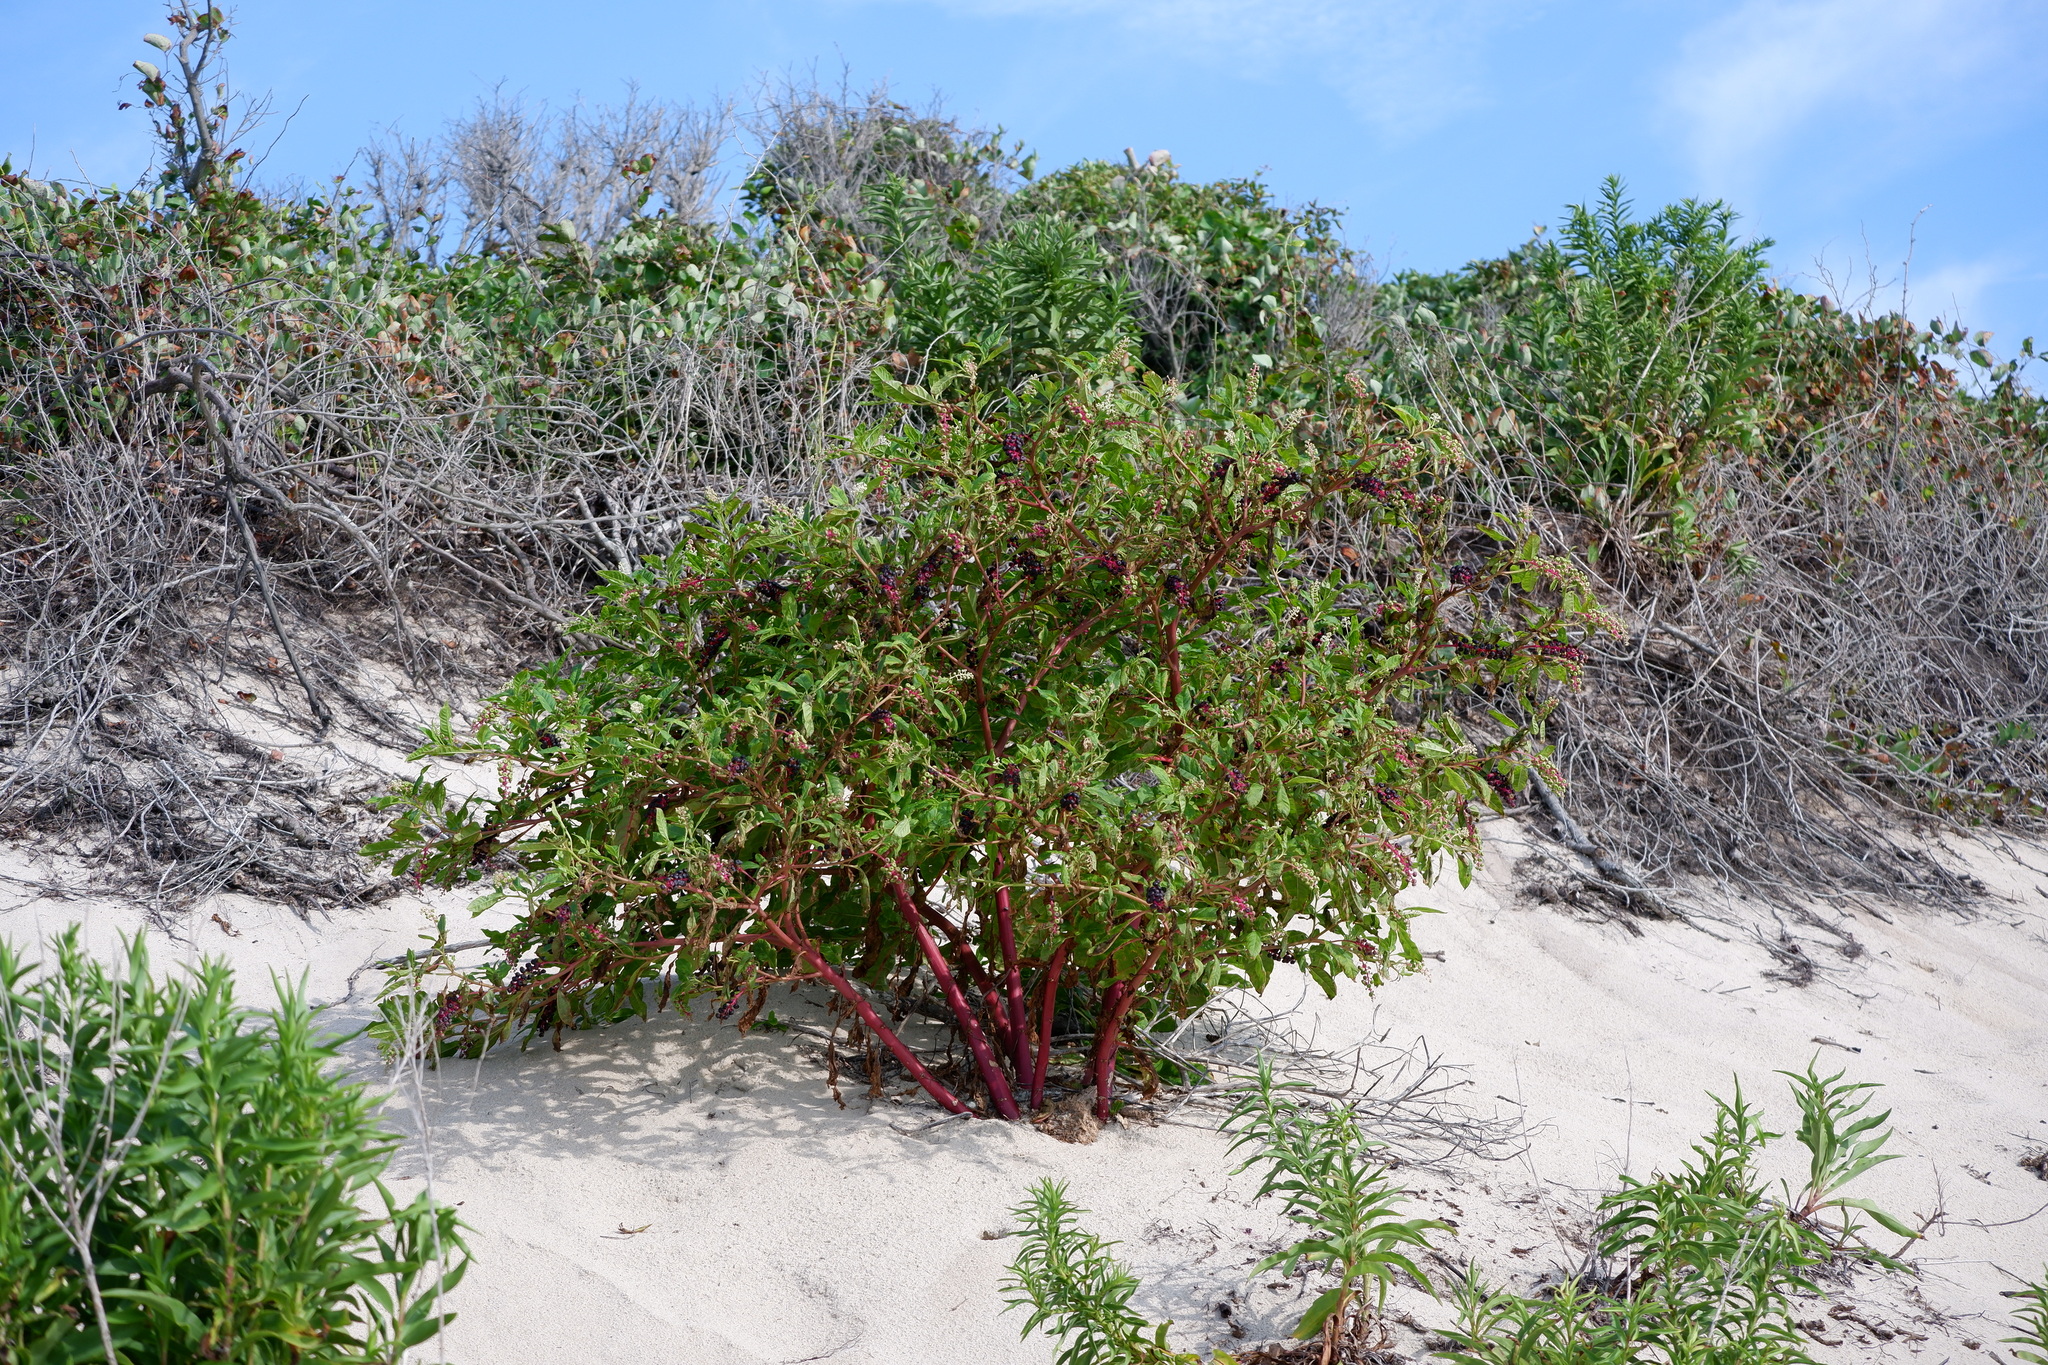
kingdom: Plantae
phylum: Tracheophyta
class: Magnoliopsida
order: Caryophyllales
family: Phytolaccaceae
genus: Phytolacca
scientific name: Phytolacca americana
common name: American pokeweed
